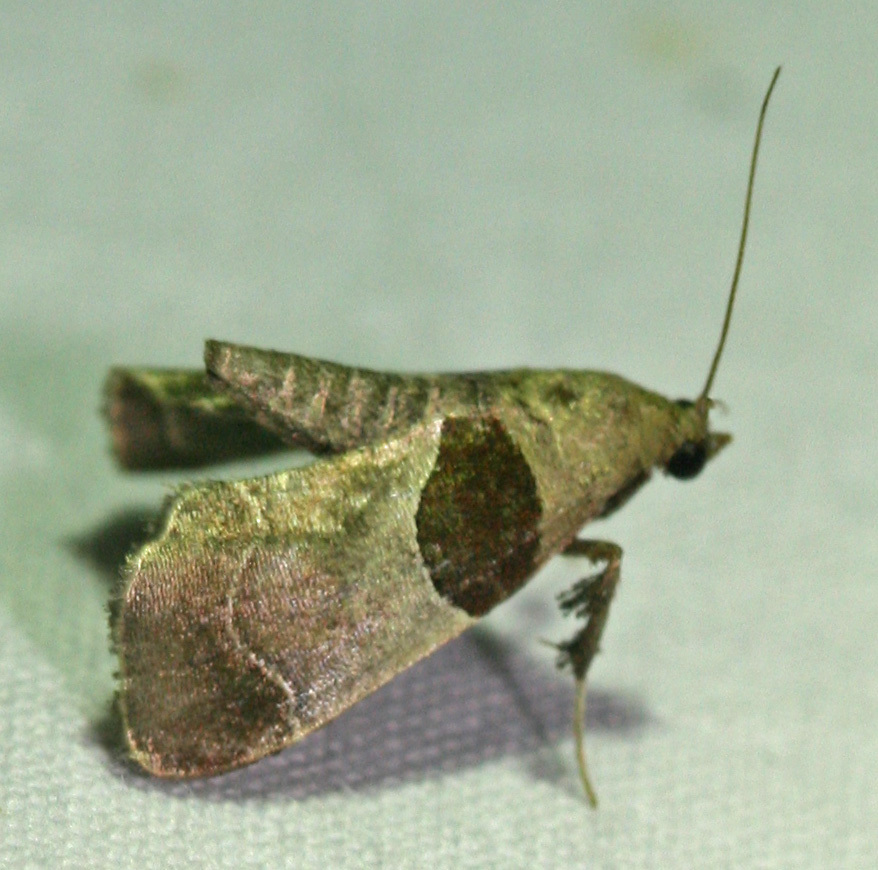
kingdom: Animalia
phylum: Arthropoda
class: Insecta
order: Lepidoptera
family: Pyralidae
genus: Tosale
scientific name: Tosale oviplagalis
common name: Dimorphic tosale moth
